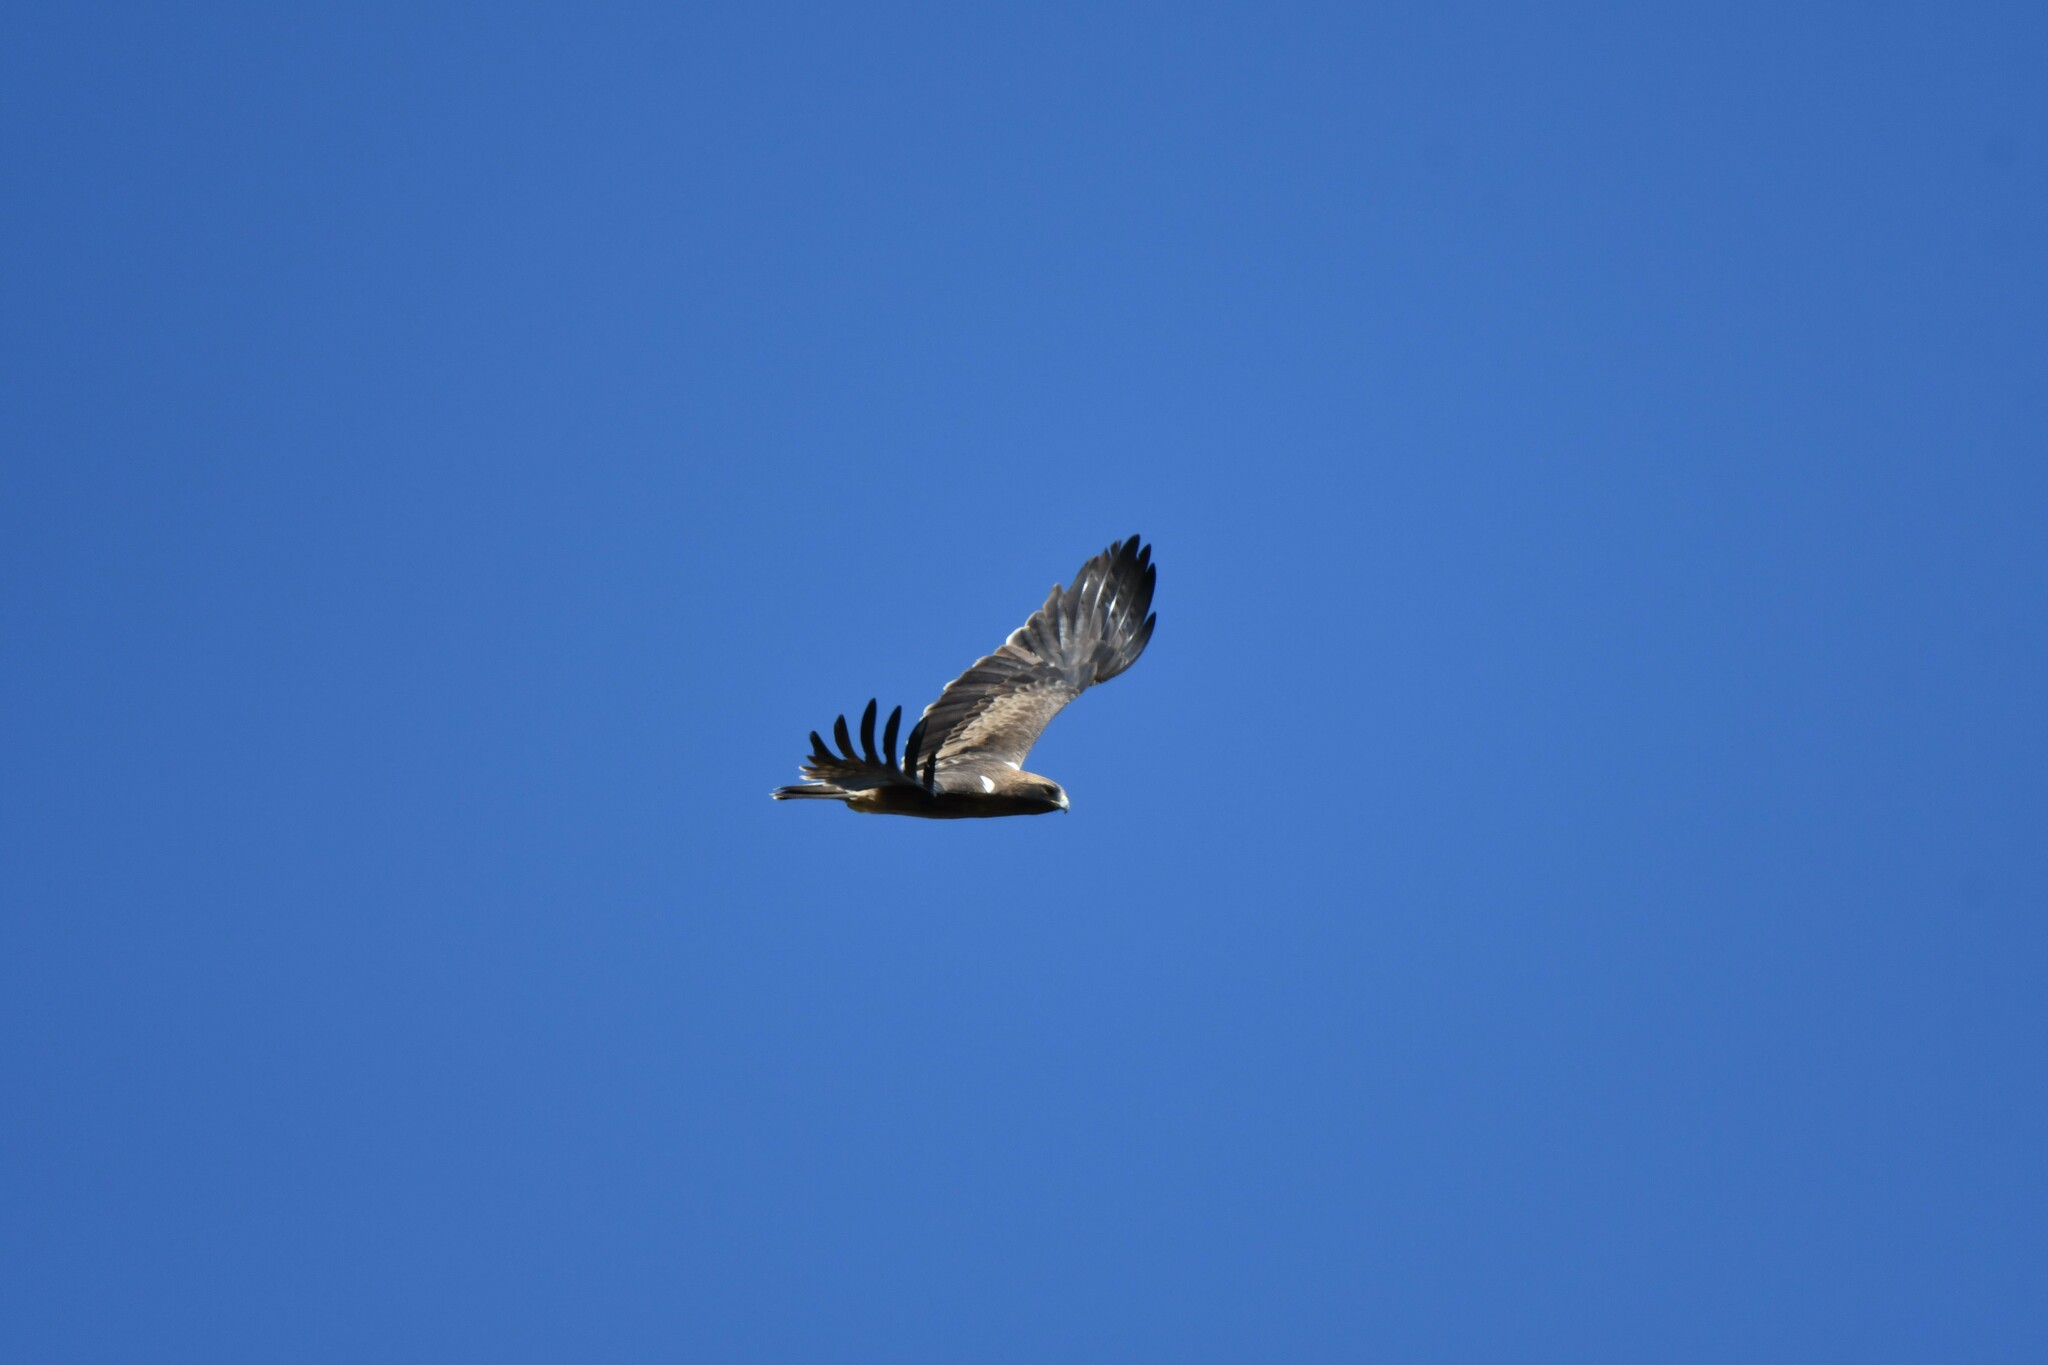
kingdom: Animalia
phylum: Chordata
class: Aves
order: Accipitriformes
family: Accipitridae
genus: Hieraaetus
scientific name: Hieraaetus pennatus
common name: Booted eagle
